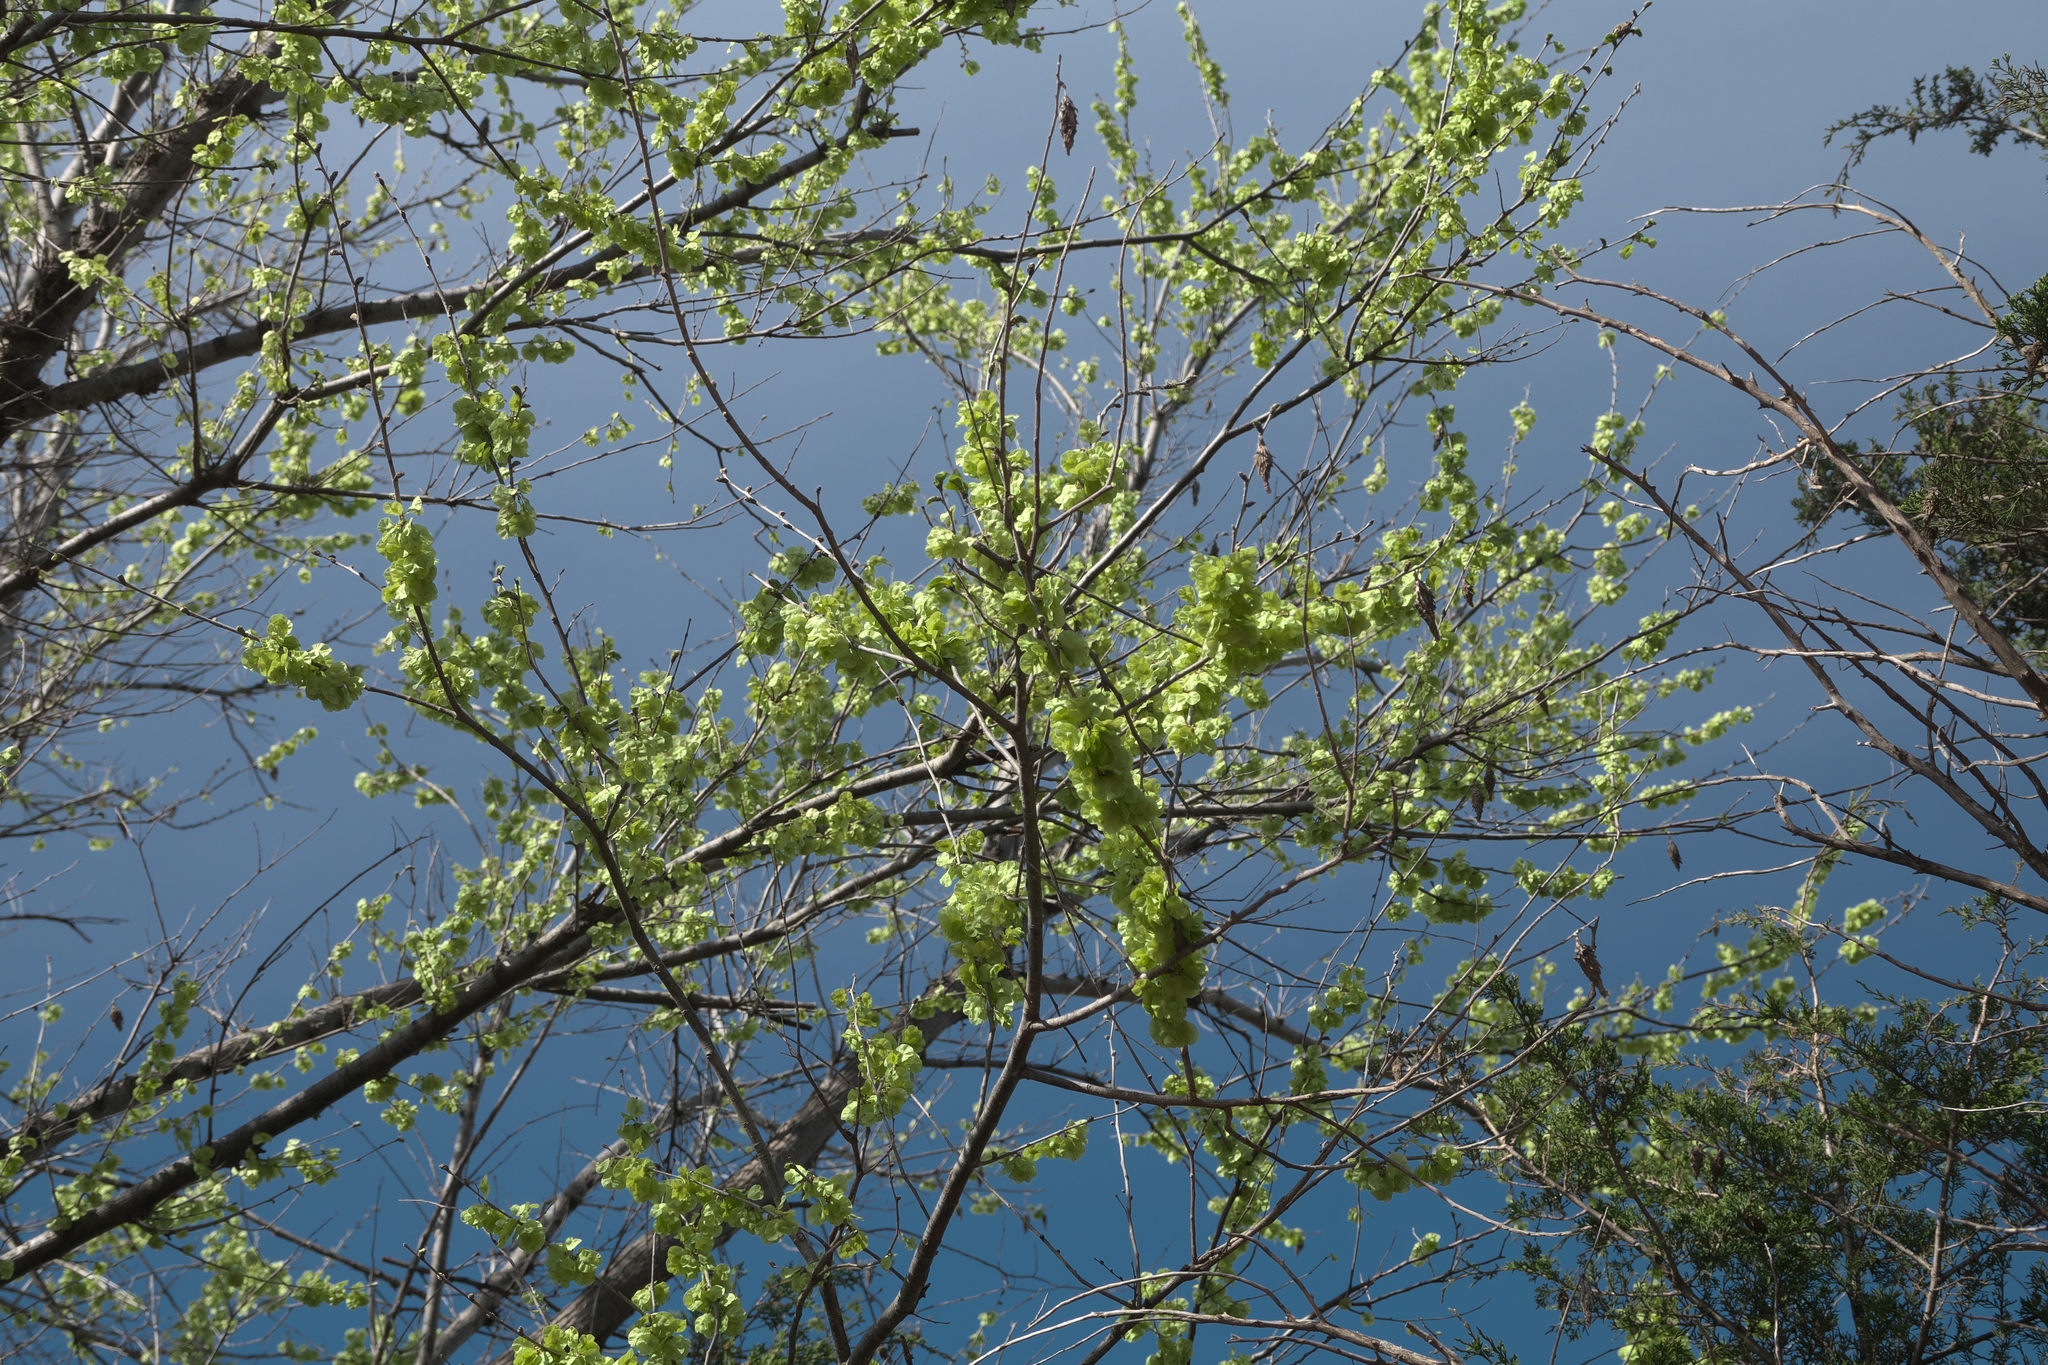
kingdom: Plantae
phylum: Tracheophyta
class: Magnoliopsida
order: Rosales
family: Ulmaceae
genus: Ulmus
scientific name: Ulmus pumila
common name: Siberian elm
